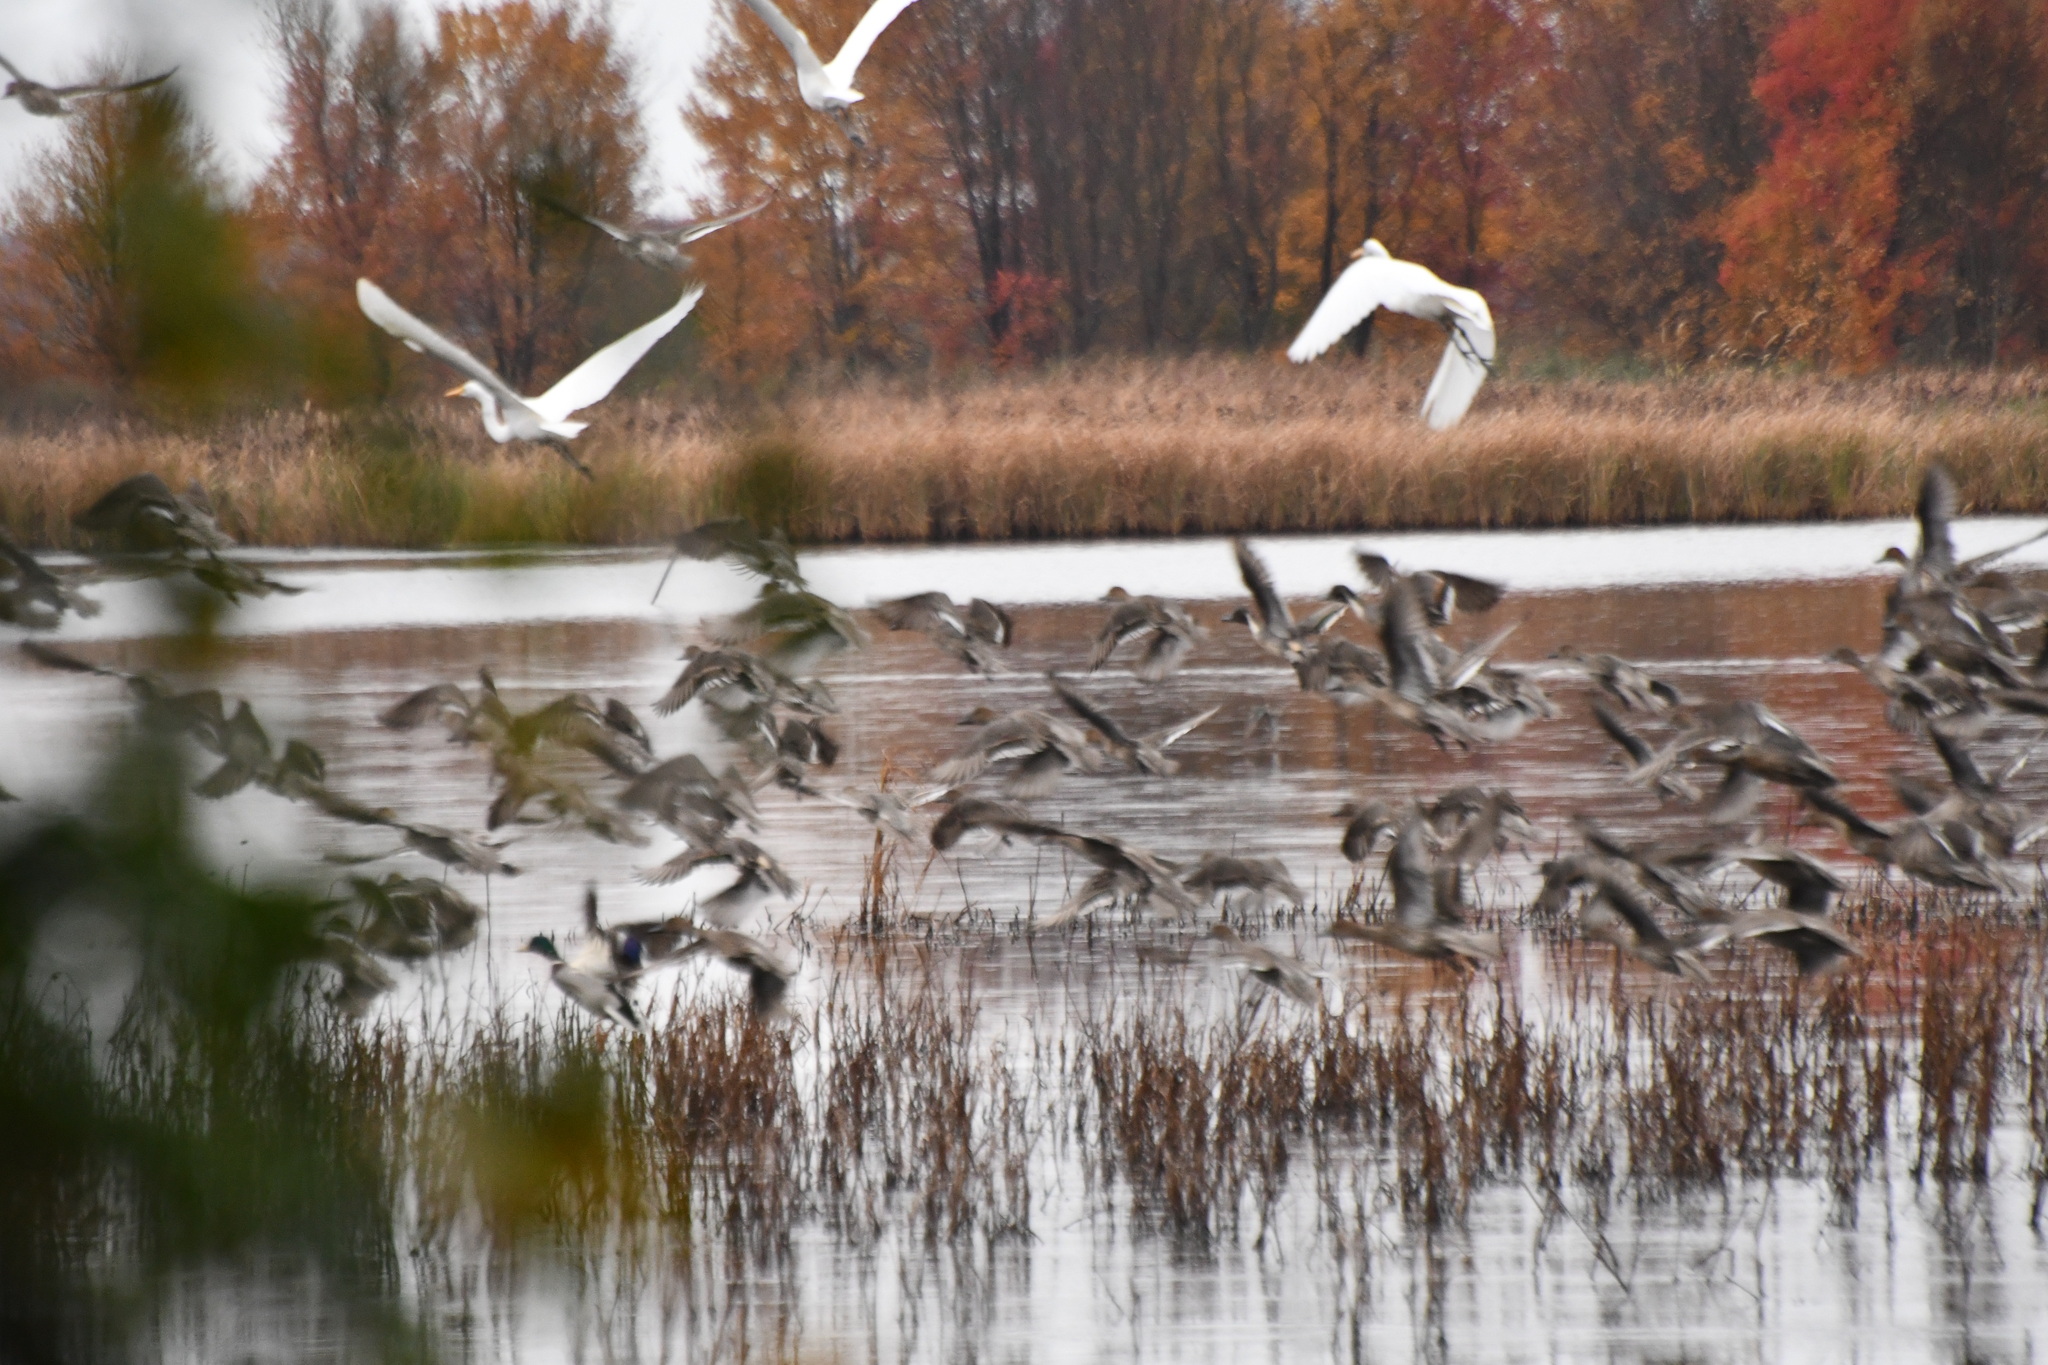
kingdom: Animalia
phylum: Chordata
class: Aves
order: Anseriformes
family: Anatidae
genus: Anas
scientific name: Anas platyrhynchos
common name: Mallard
